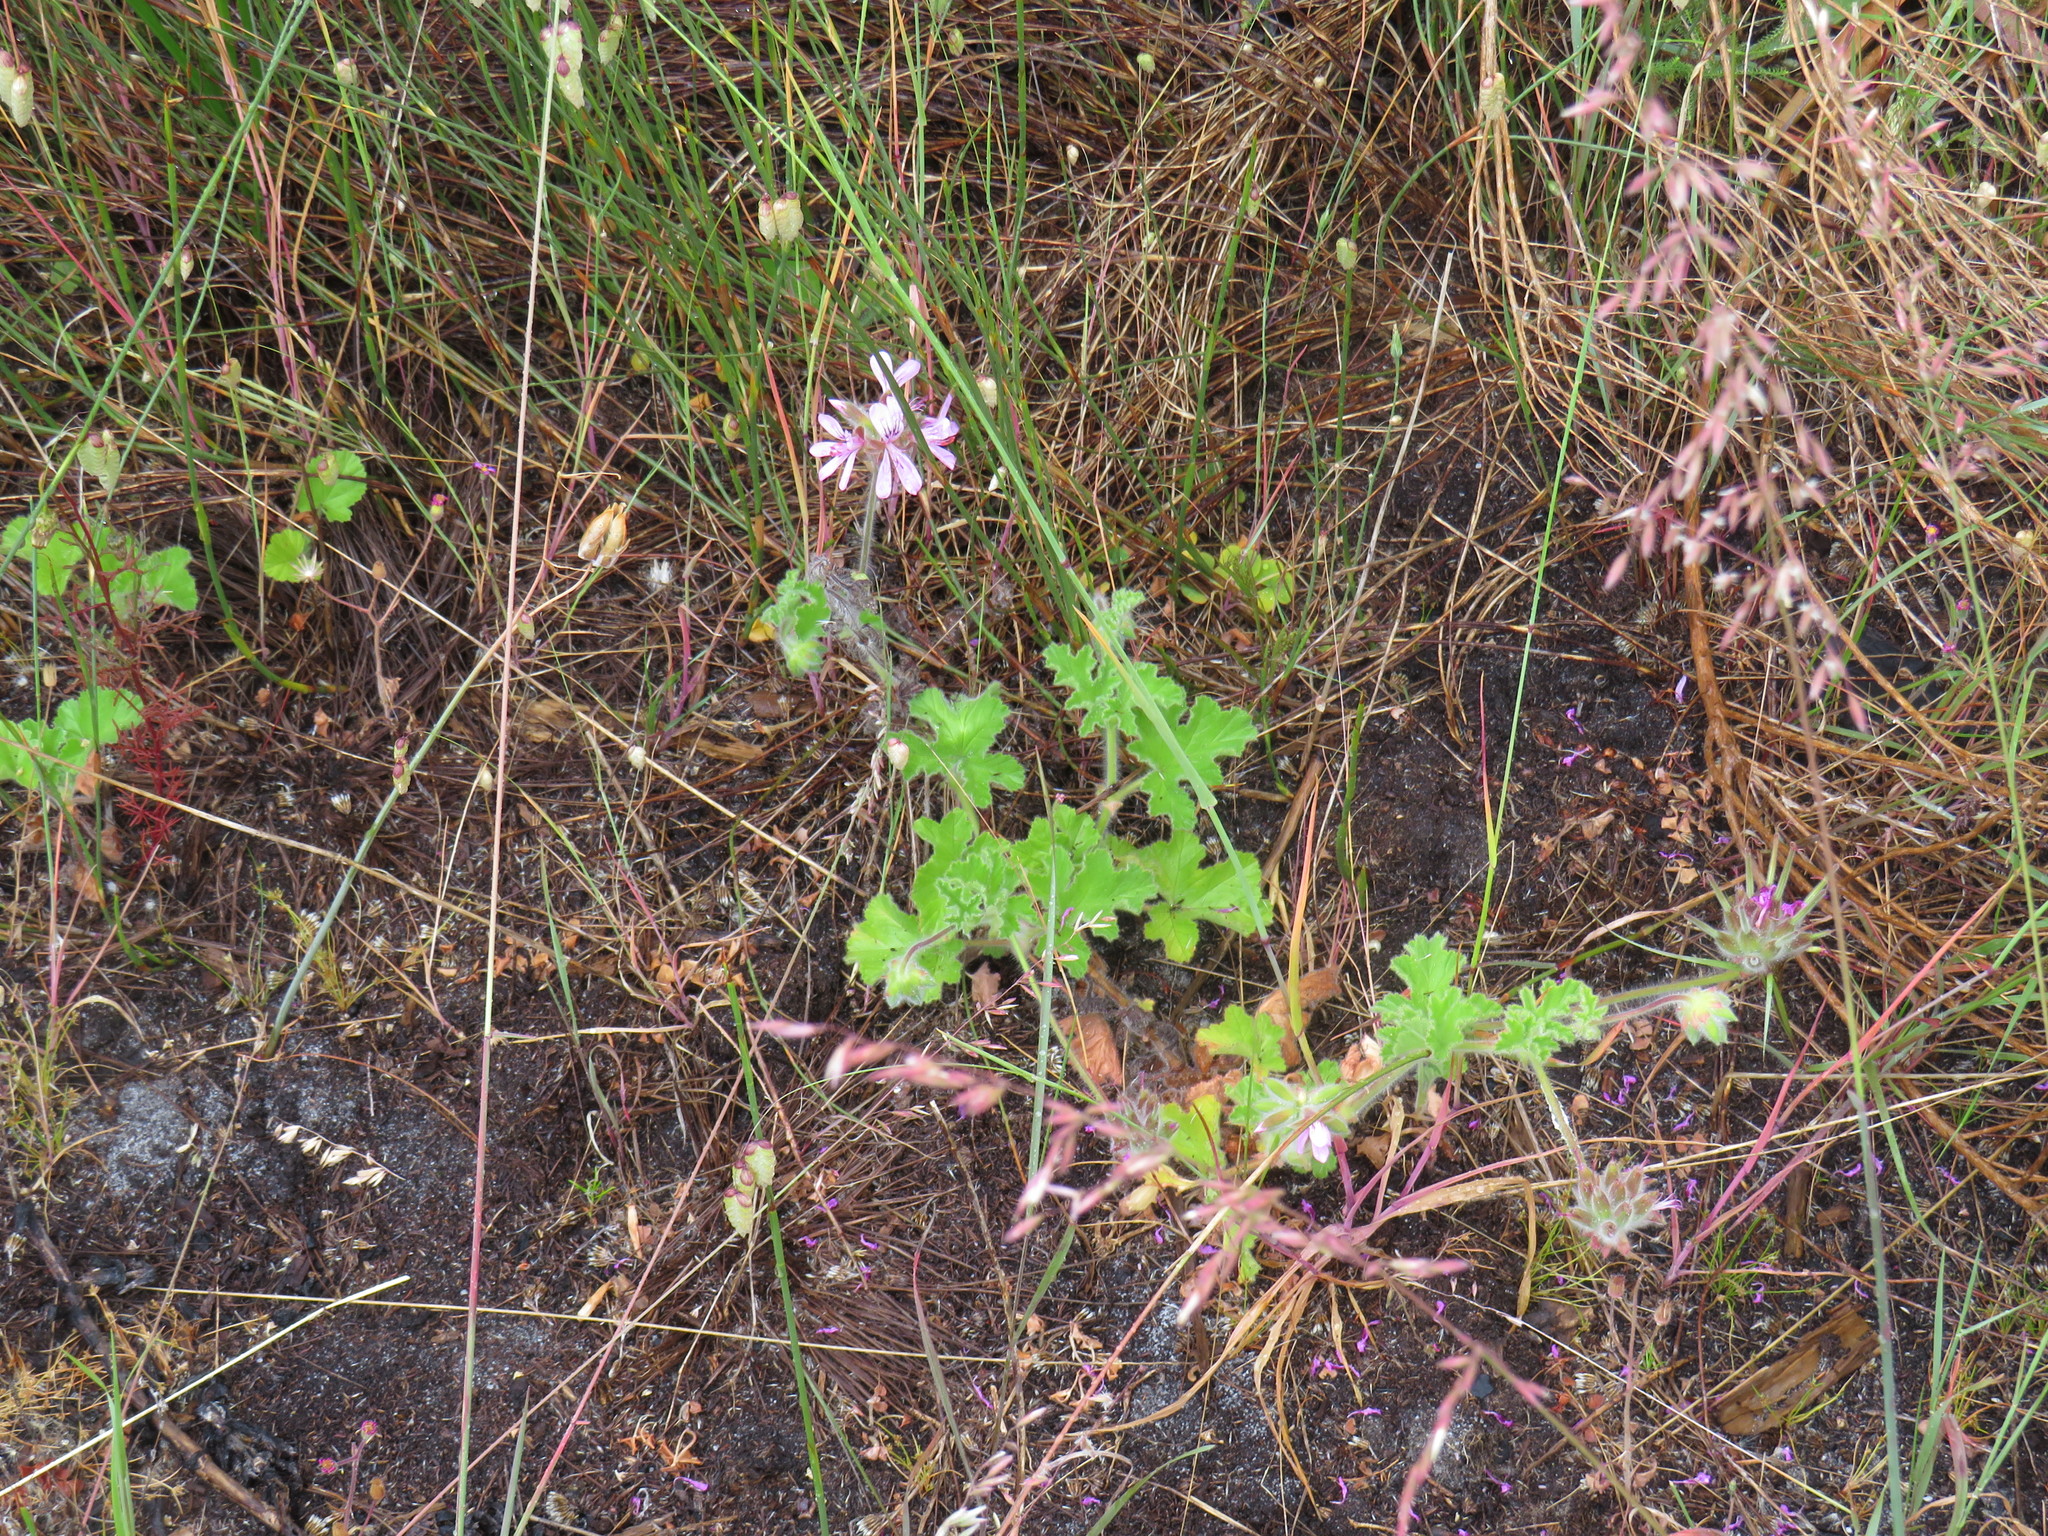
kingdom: Plantae
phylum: Tracheophyta
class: Magnoliopsida
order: Geraniales
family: Geraniaceae
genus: Pelargonium
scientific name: Pelargonium capitatum
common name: Rose scented geranium
